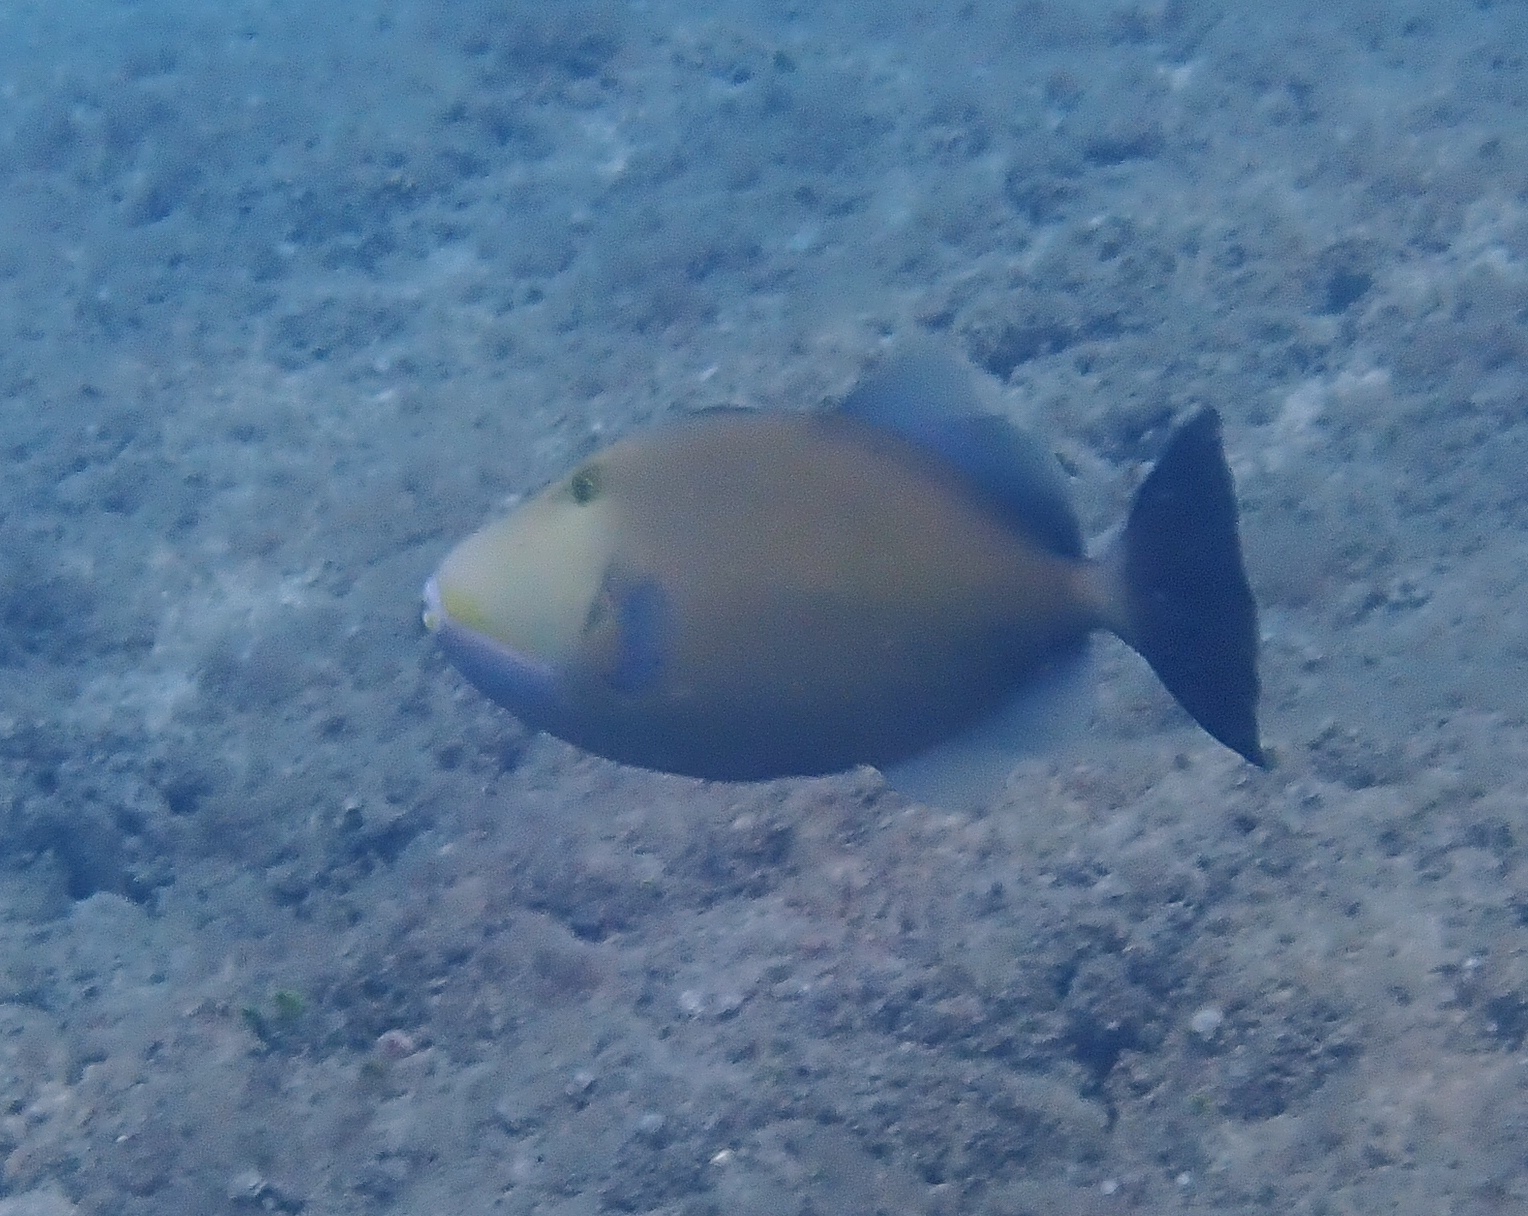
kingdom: Animalia
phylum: Chordata
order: Tetraodontiformes
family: Balistidae
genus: Sufflamen
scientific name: Sufflamen fraenatum
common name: Bridle triggerfish
